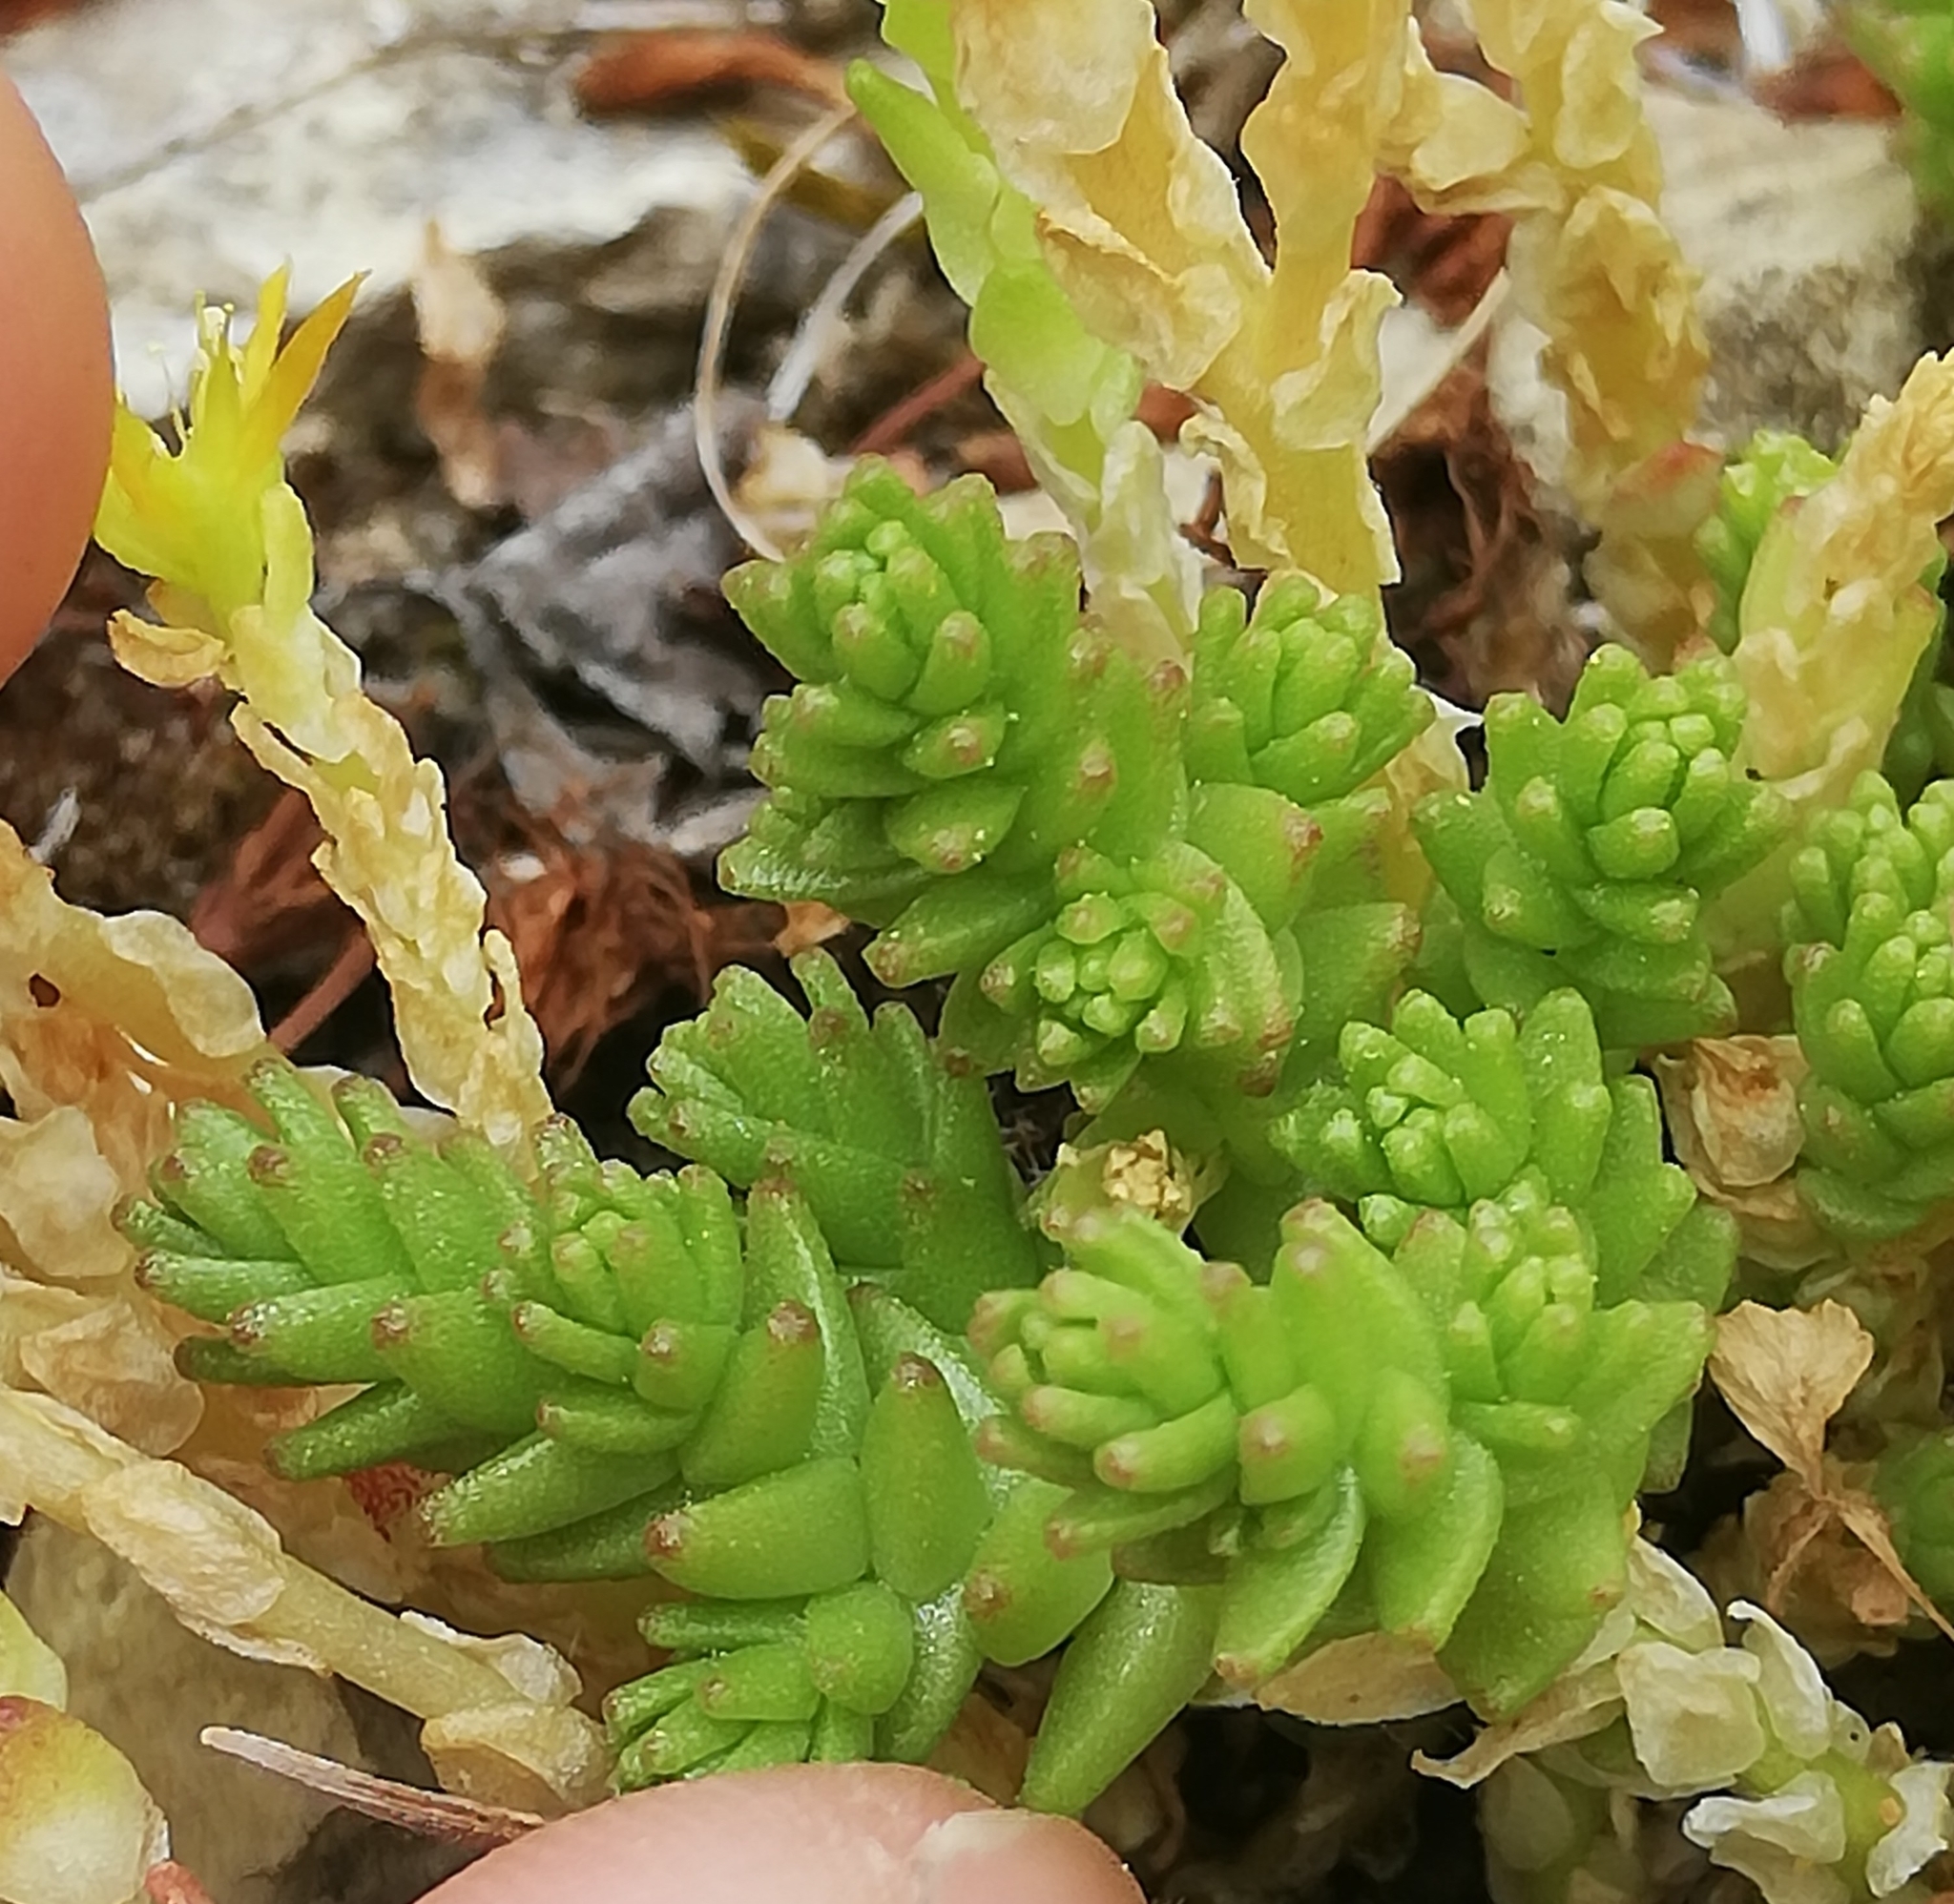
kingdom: Plantae
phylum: Tracheophyta
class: Magnoliopsida
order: Saxifragales
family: Crassulaceae
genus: Sedum
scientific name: Sedum acre
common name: Biting stonecrop
